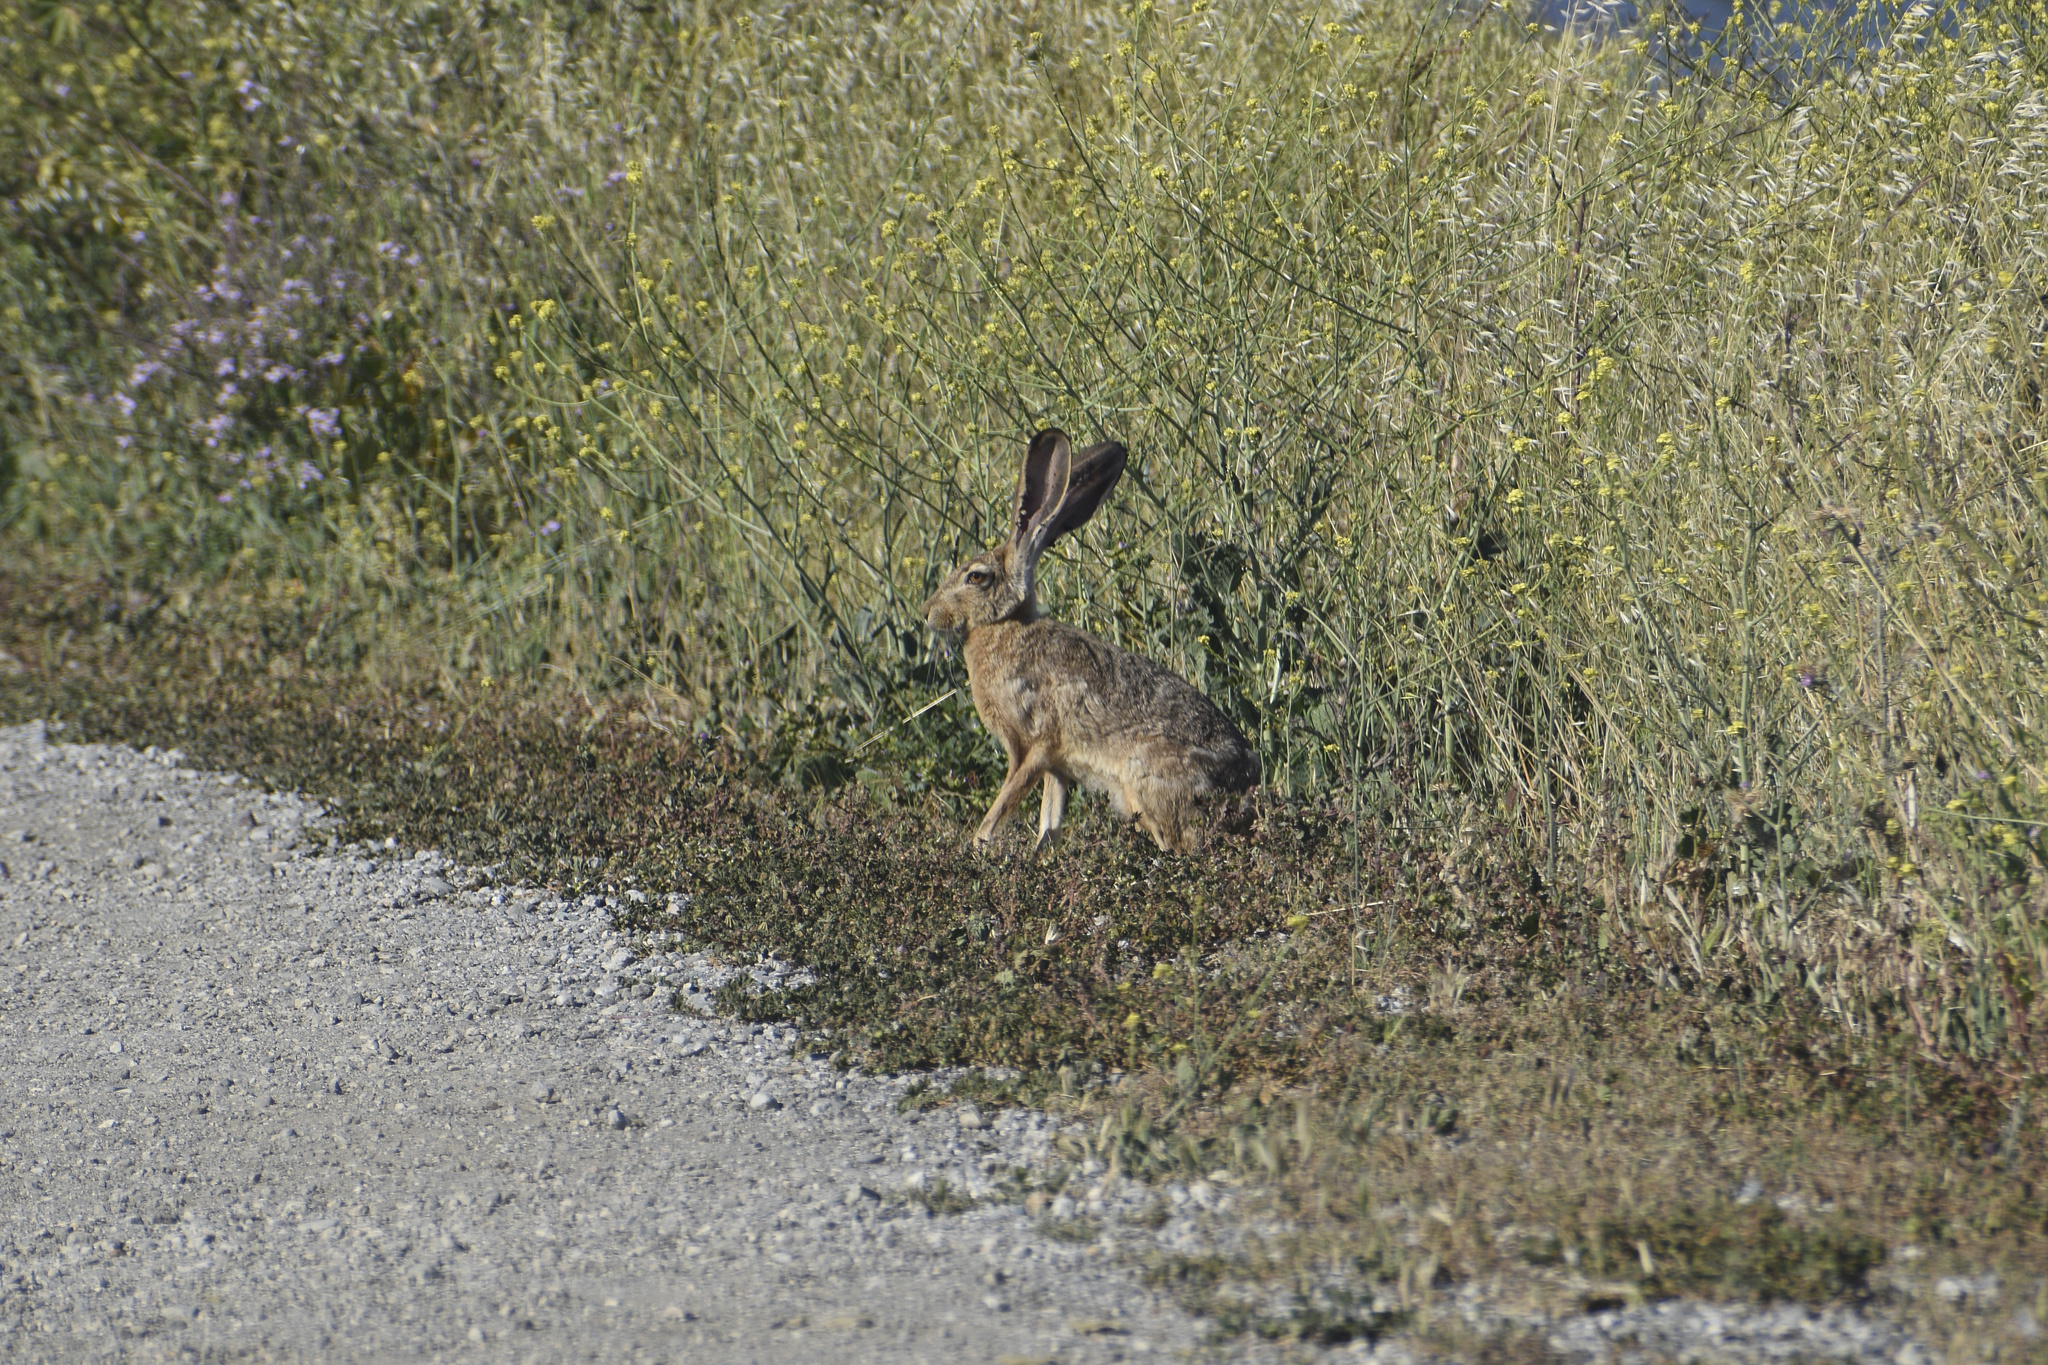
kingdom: Animalia
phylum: Chordata
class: Mammalia
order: Lagomorpha
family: Leporidae
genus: Lepus
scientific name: Lepus californicus
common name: Black-tailed jackrabbit
